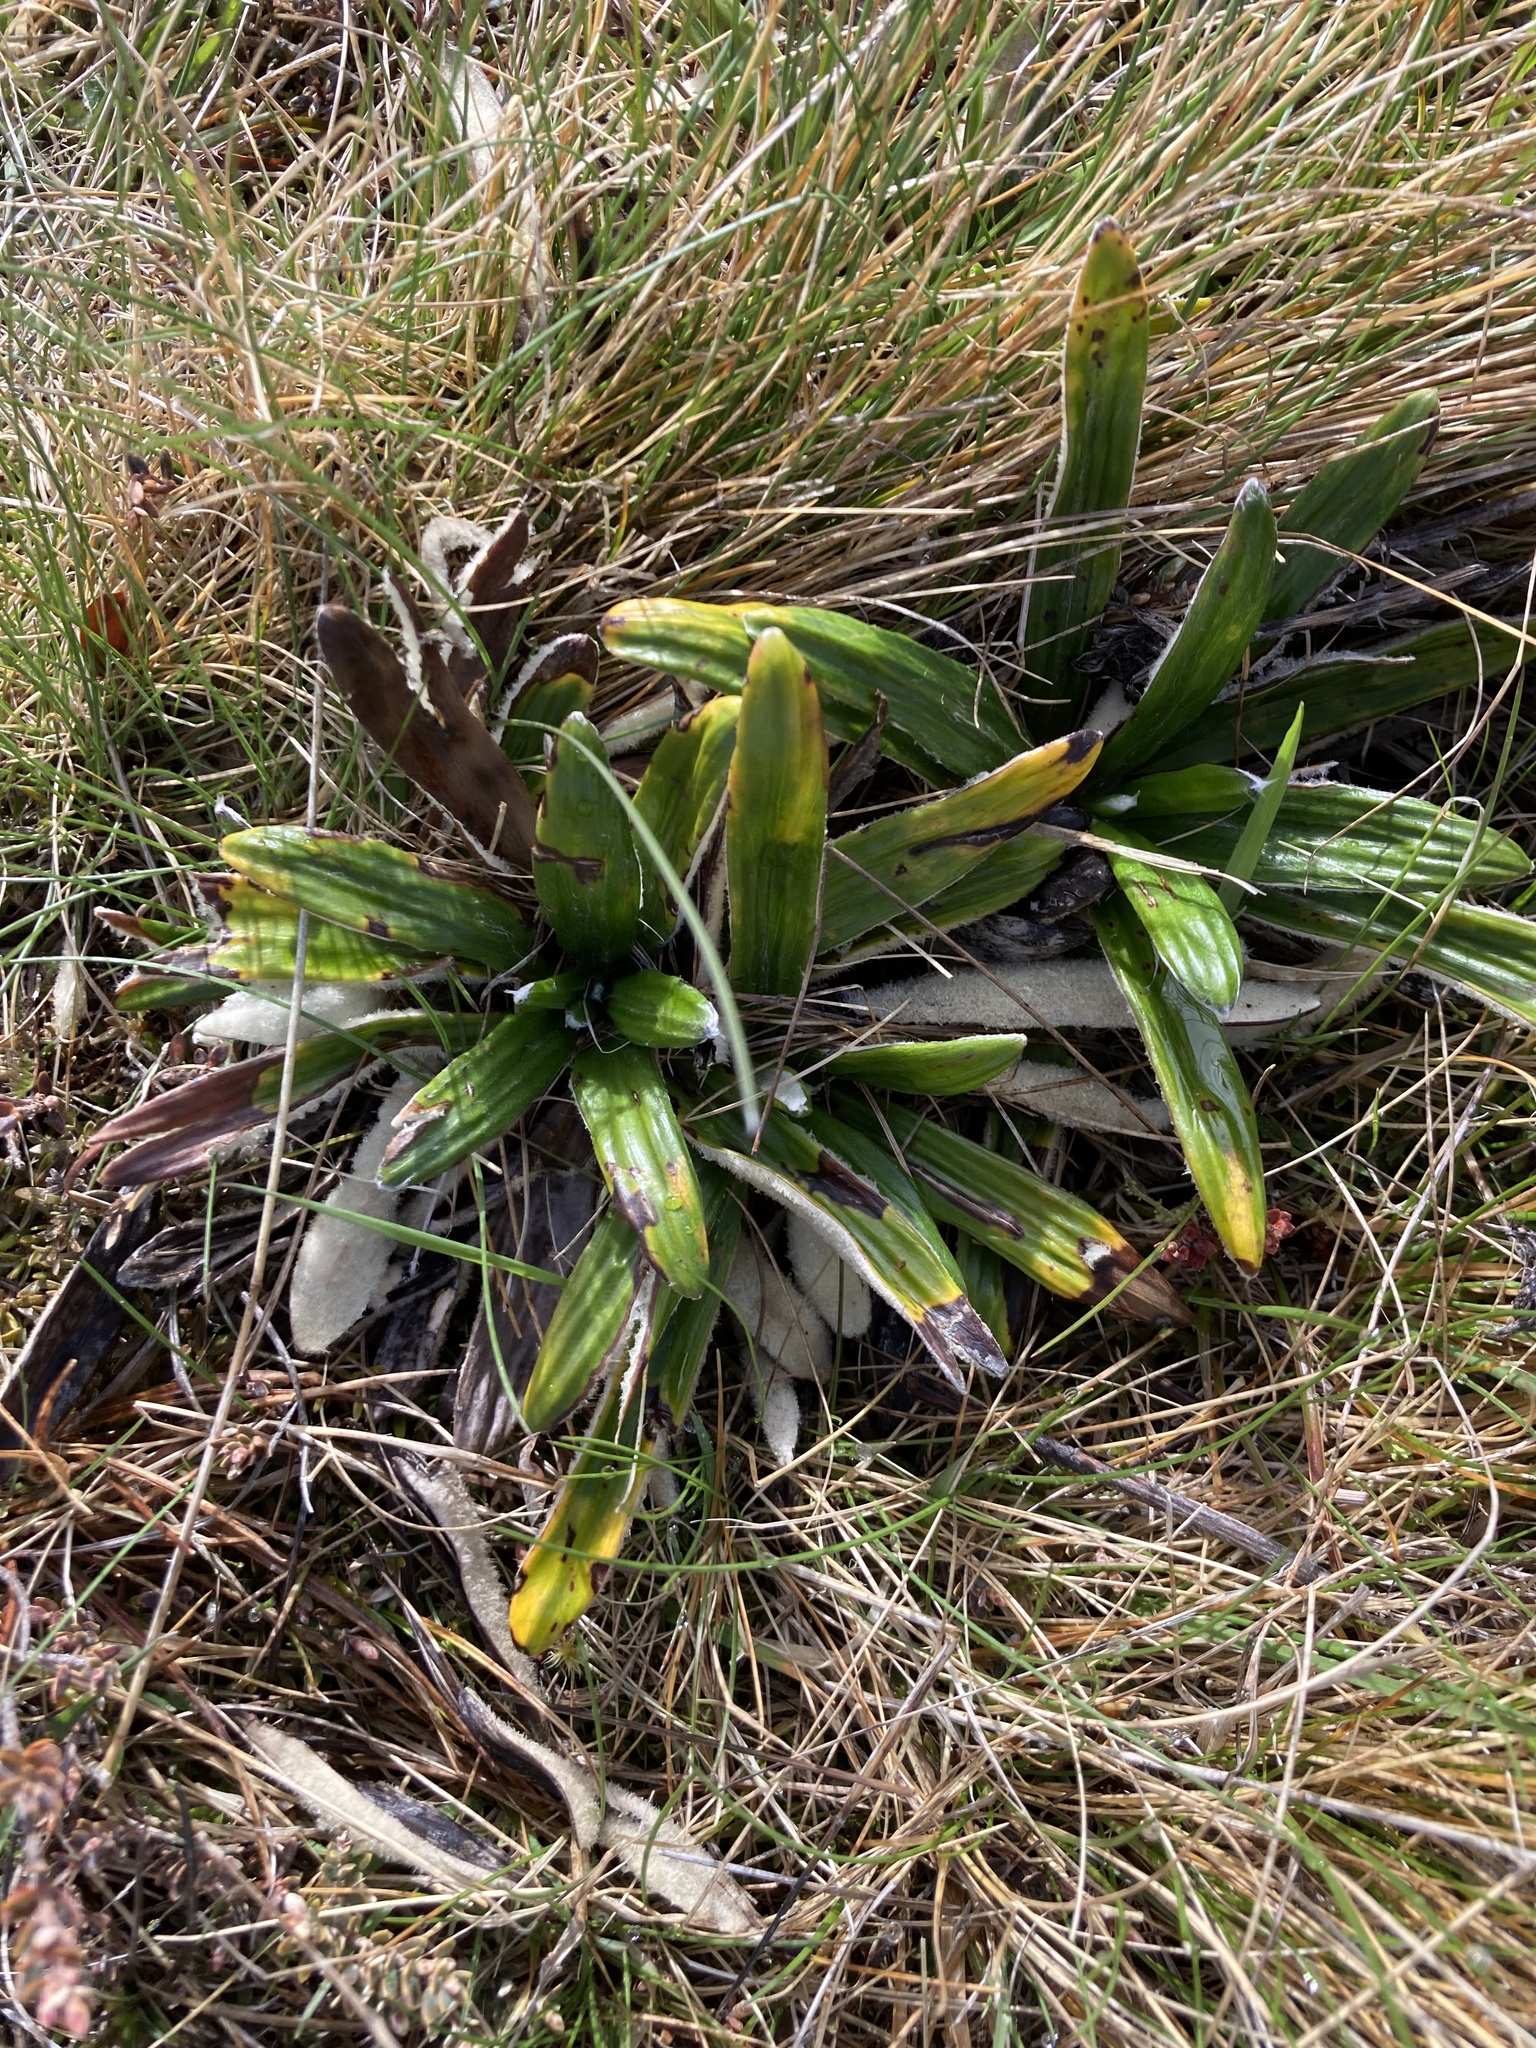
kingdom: Plantae
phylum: Tracheophyta
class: Magnoliopsida
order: Asterales
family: Asteraceae
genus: Celmisia
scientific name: Celmisia spectabilis
